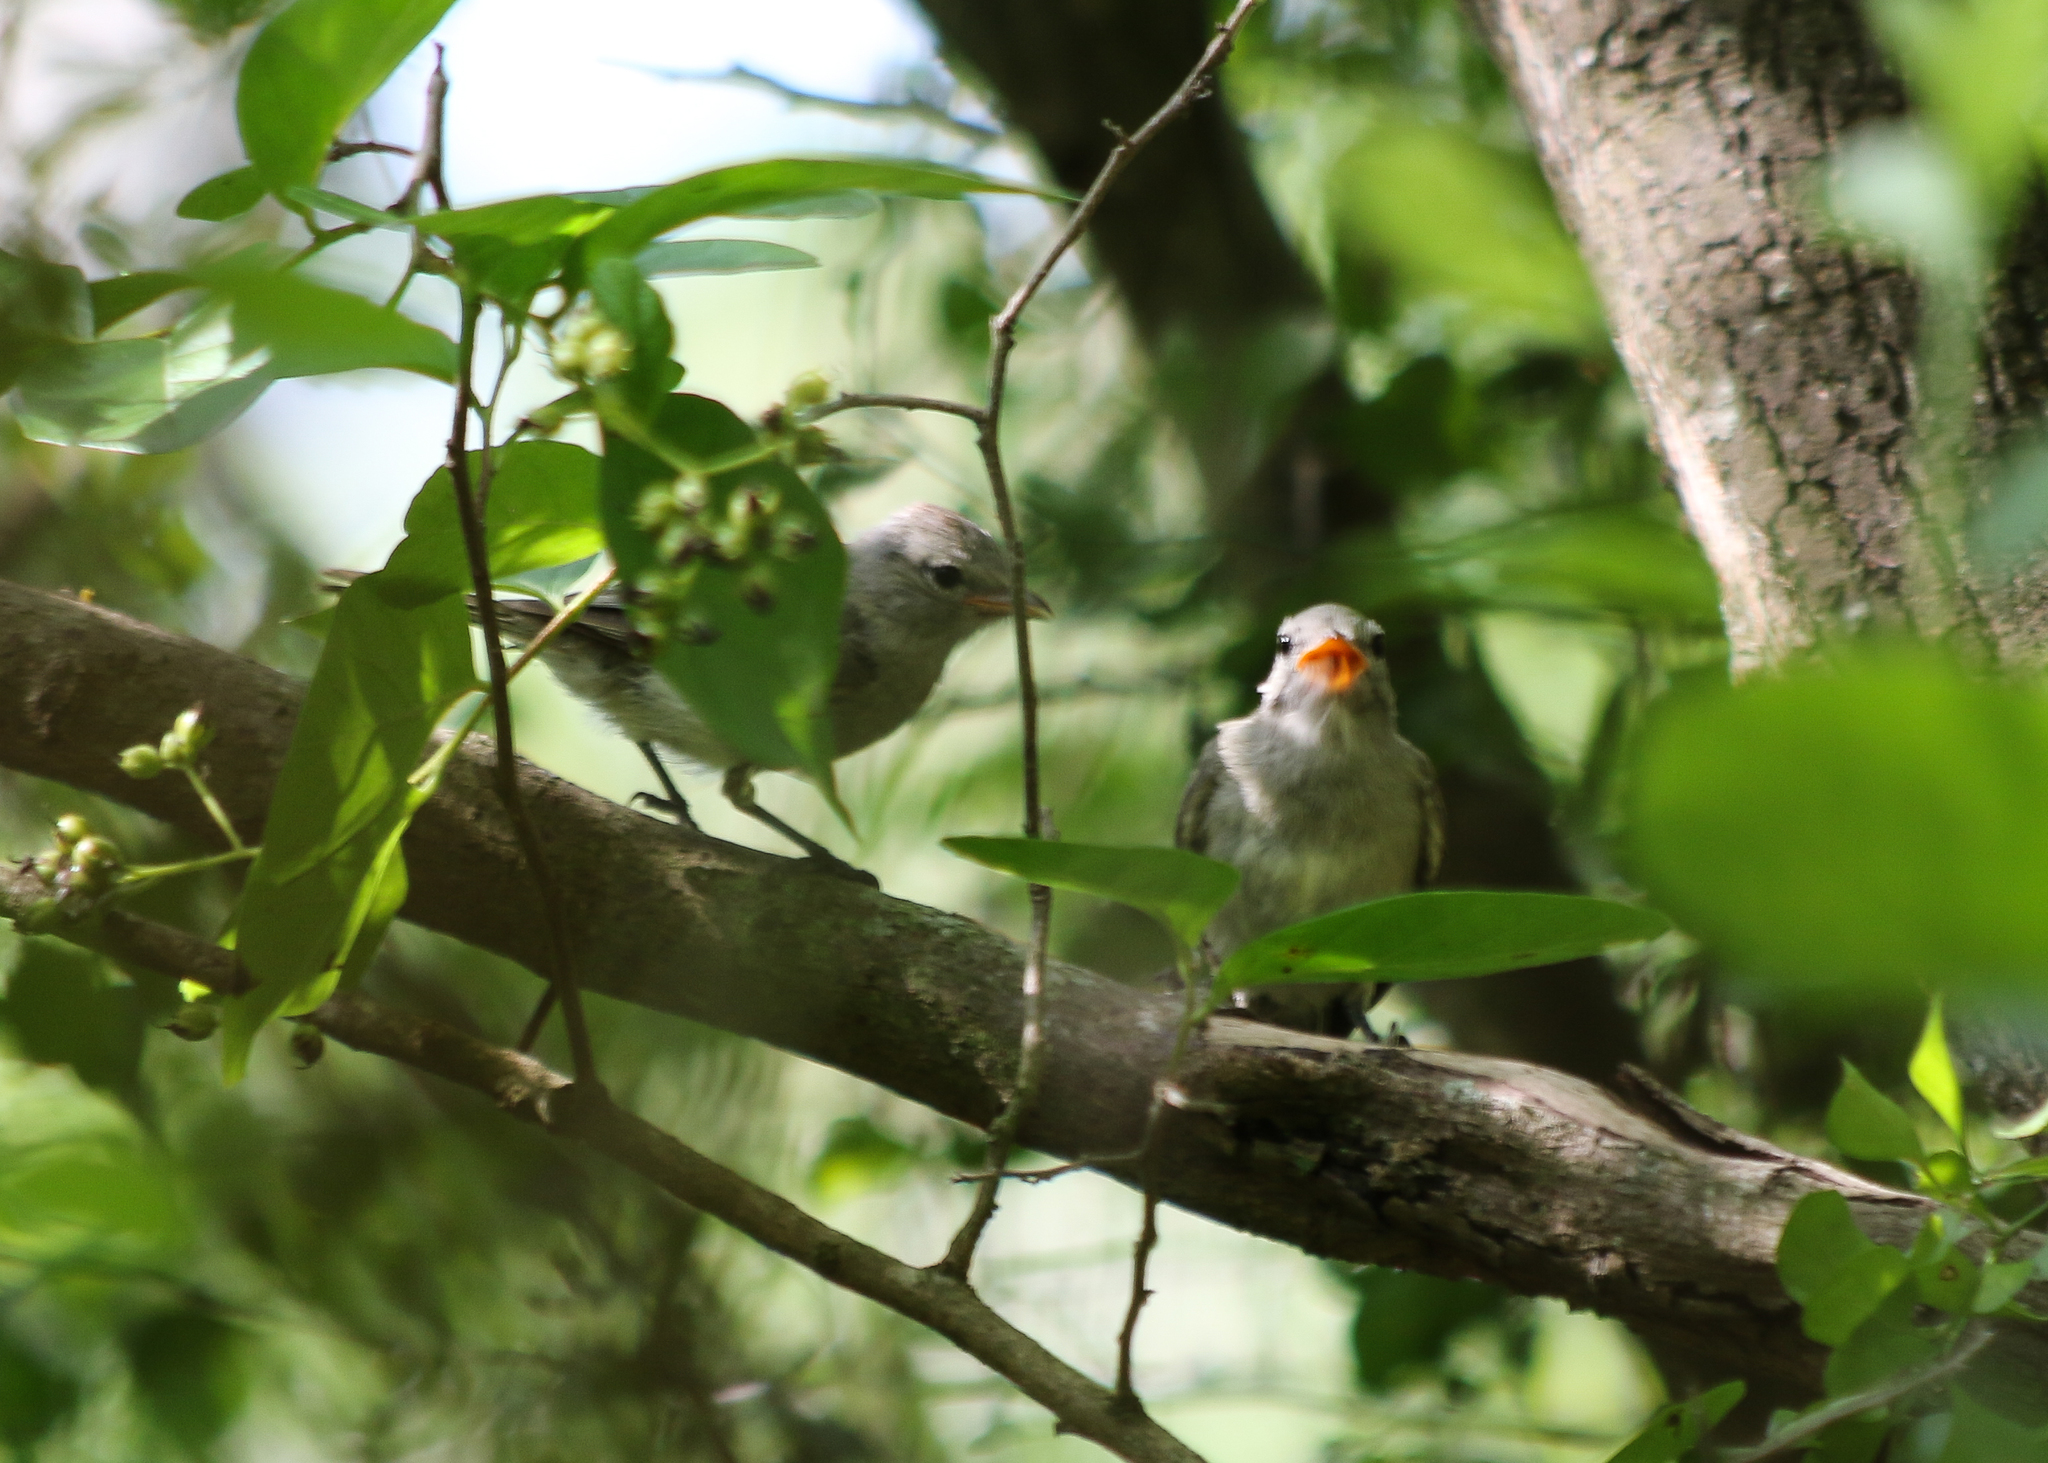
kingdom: Animalia
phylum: Chordata
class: Aves
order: Passeriformes
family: Tyrannidae
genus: Camptostoma
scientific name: Camptostoma imberbe
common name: Northern beardless-tyrannulet
